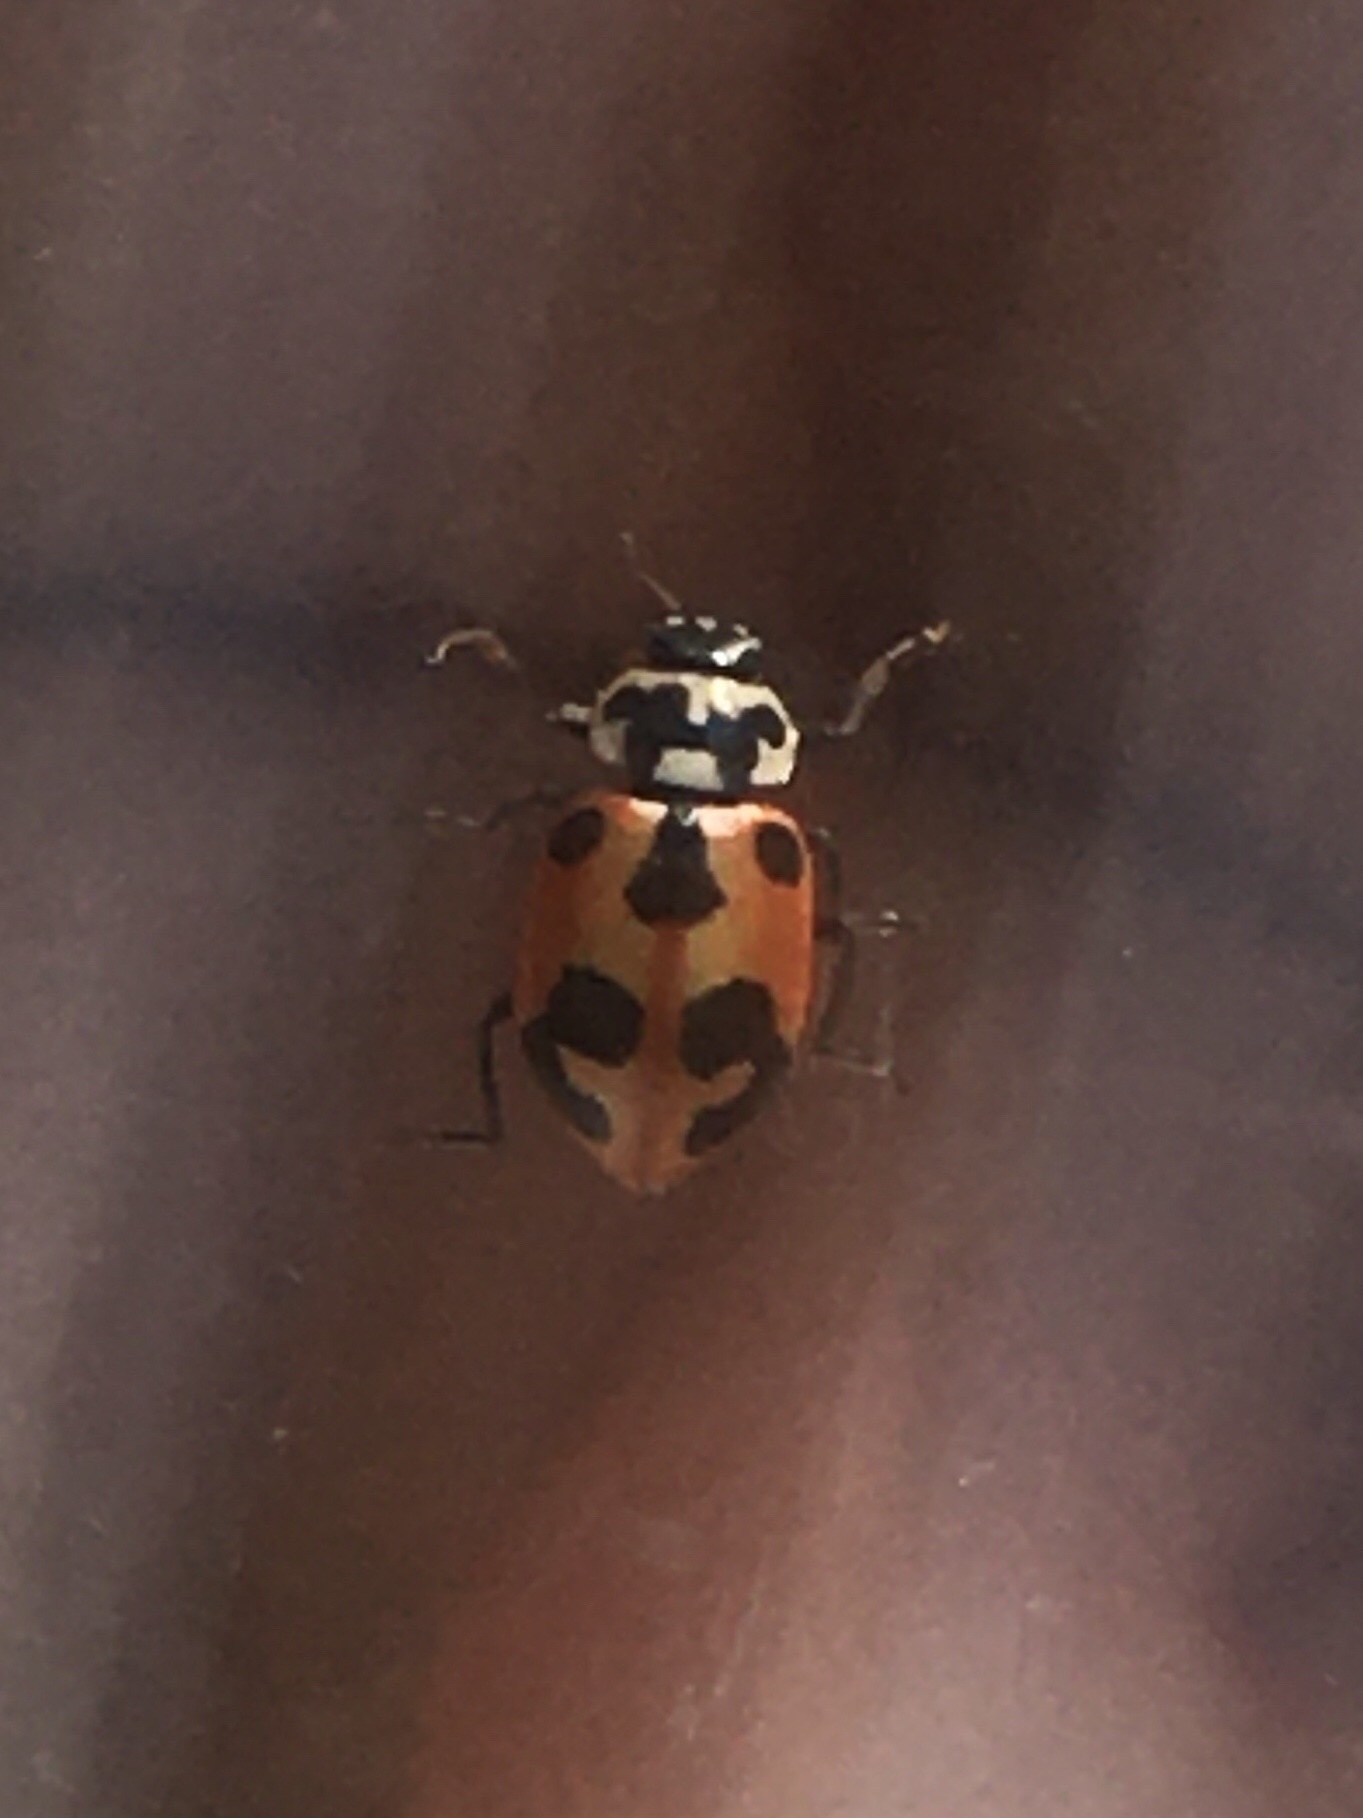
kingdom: Animalia
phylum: Arthropoda
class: Insecta
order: Coleoptera
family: Coccinellidae
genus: Hippodamia
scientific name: Hippodamia parenthesis
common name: Parenthesis lady beetle
